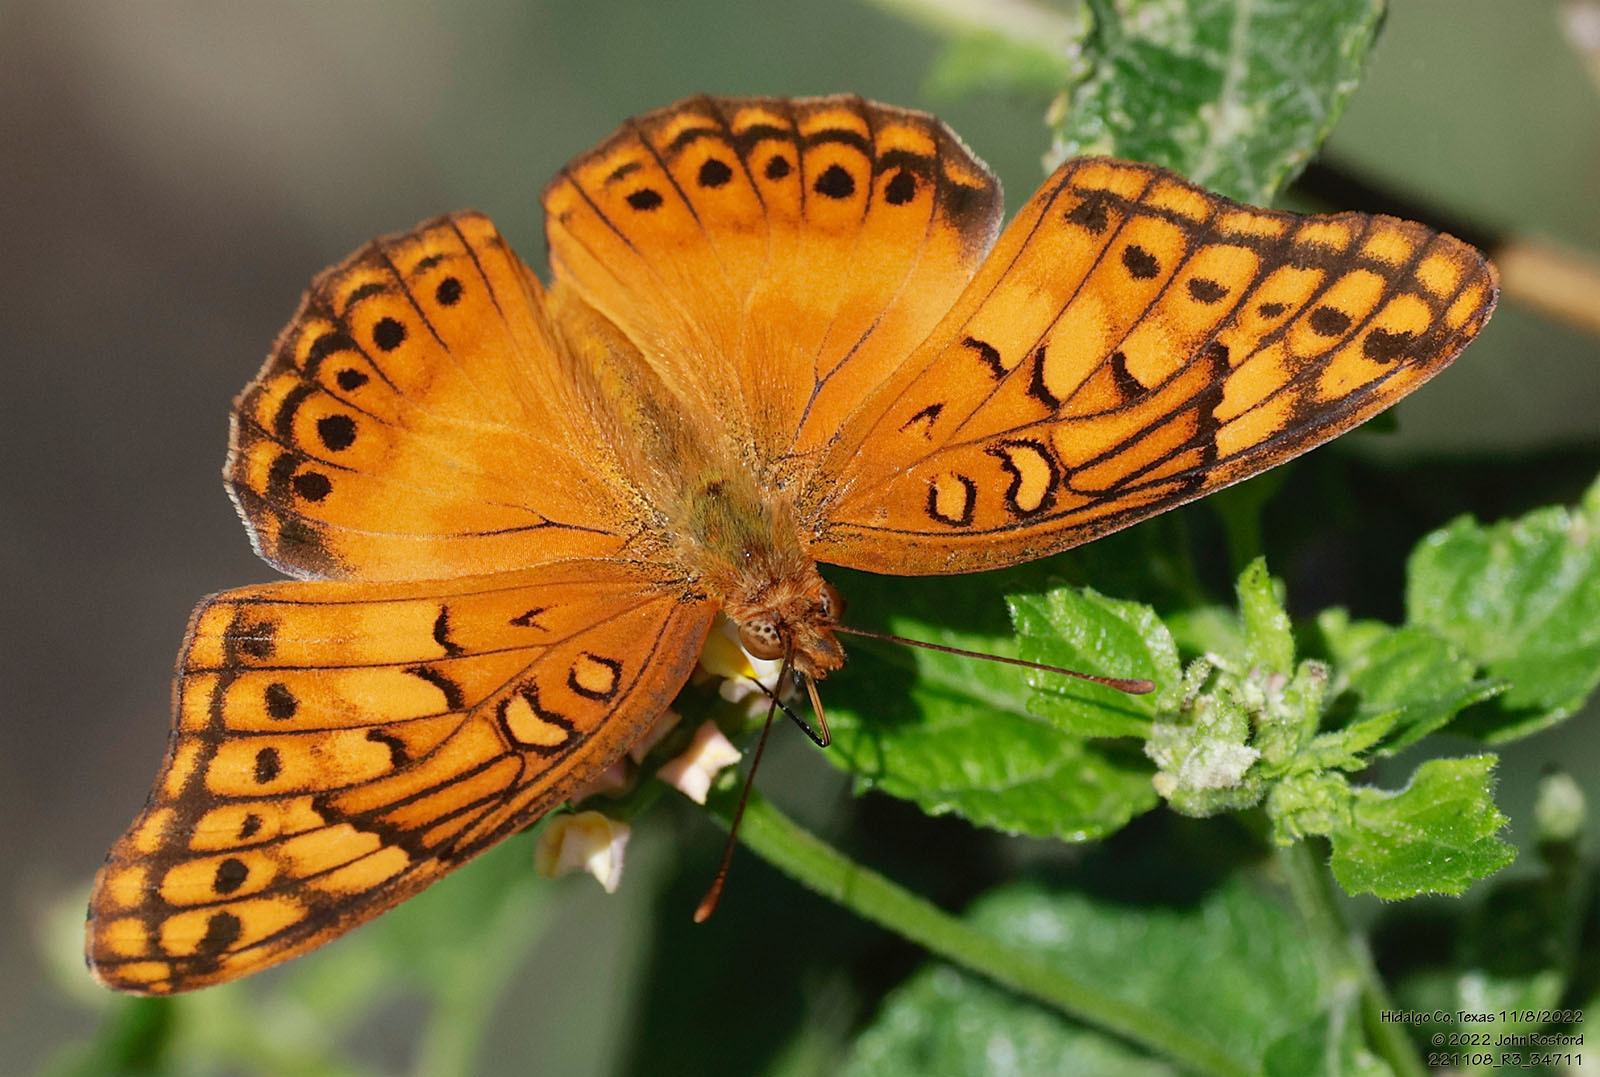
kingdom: Animalia
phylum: Arthropoda
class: Insecta
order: Lepidoptera
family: Nymphalidae
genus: Euptoieta
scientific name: Euptoieta hegesia
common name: Mexican fritillary
